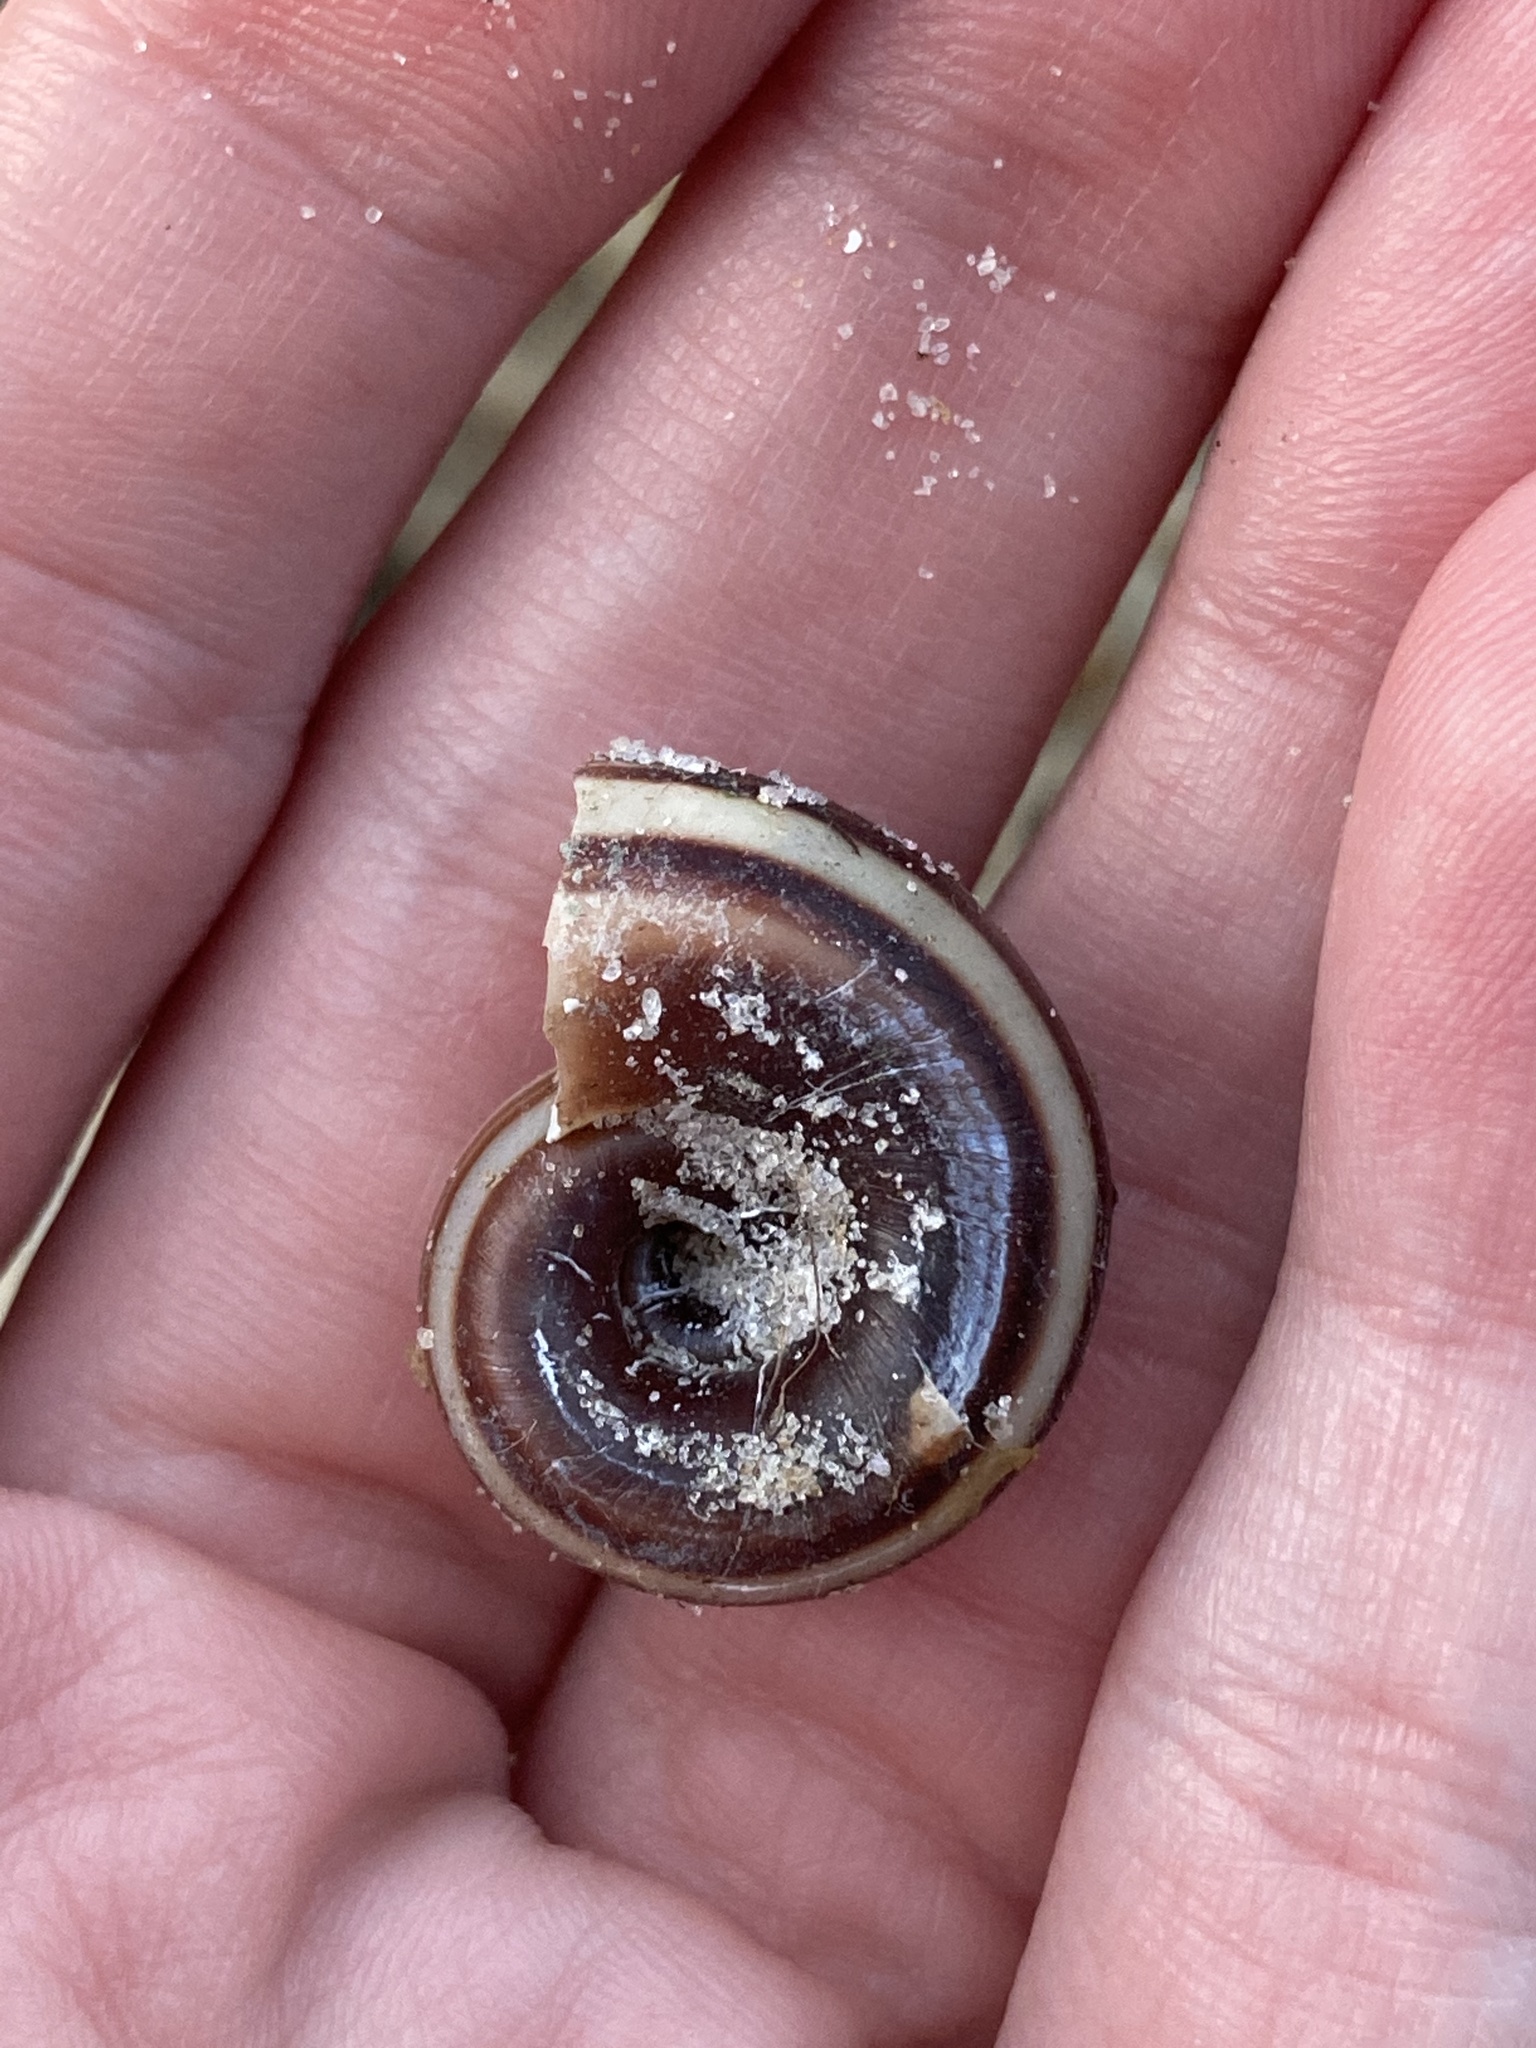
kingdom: Animalia
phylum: Mollusca
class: Gastropoda
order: Architaenioglossa
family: Ampullariidae
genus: Marisa
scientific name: Marisa cornuarietis
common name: Giant ramshorn snail
